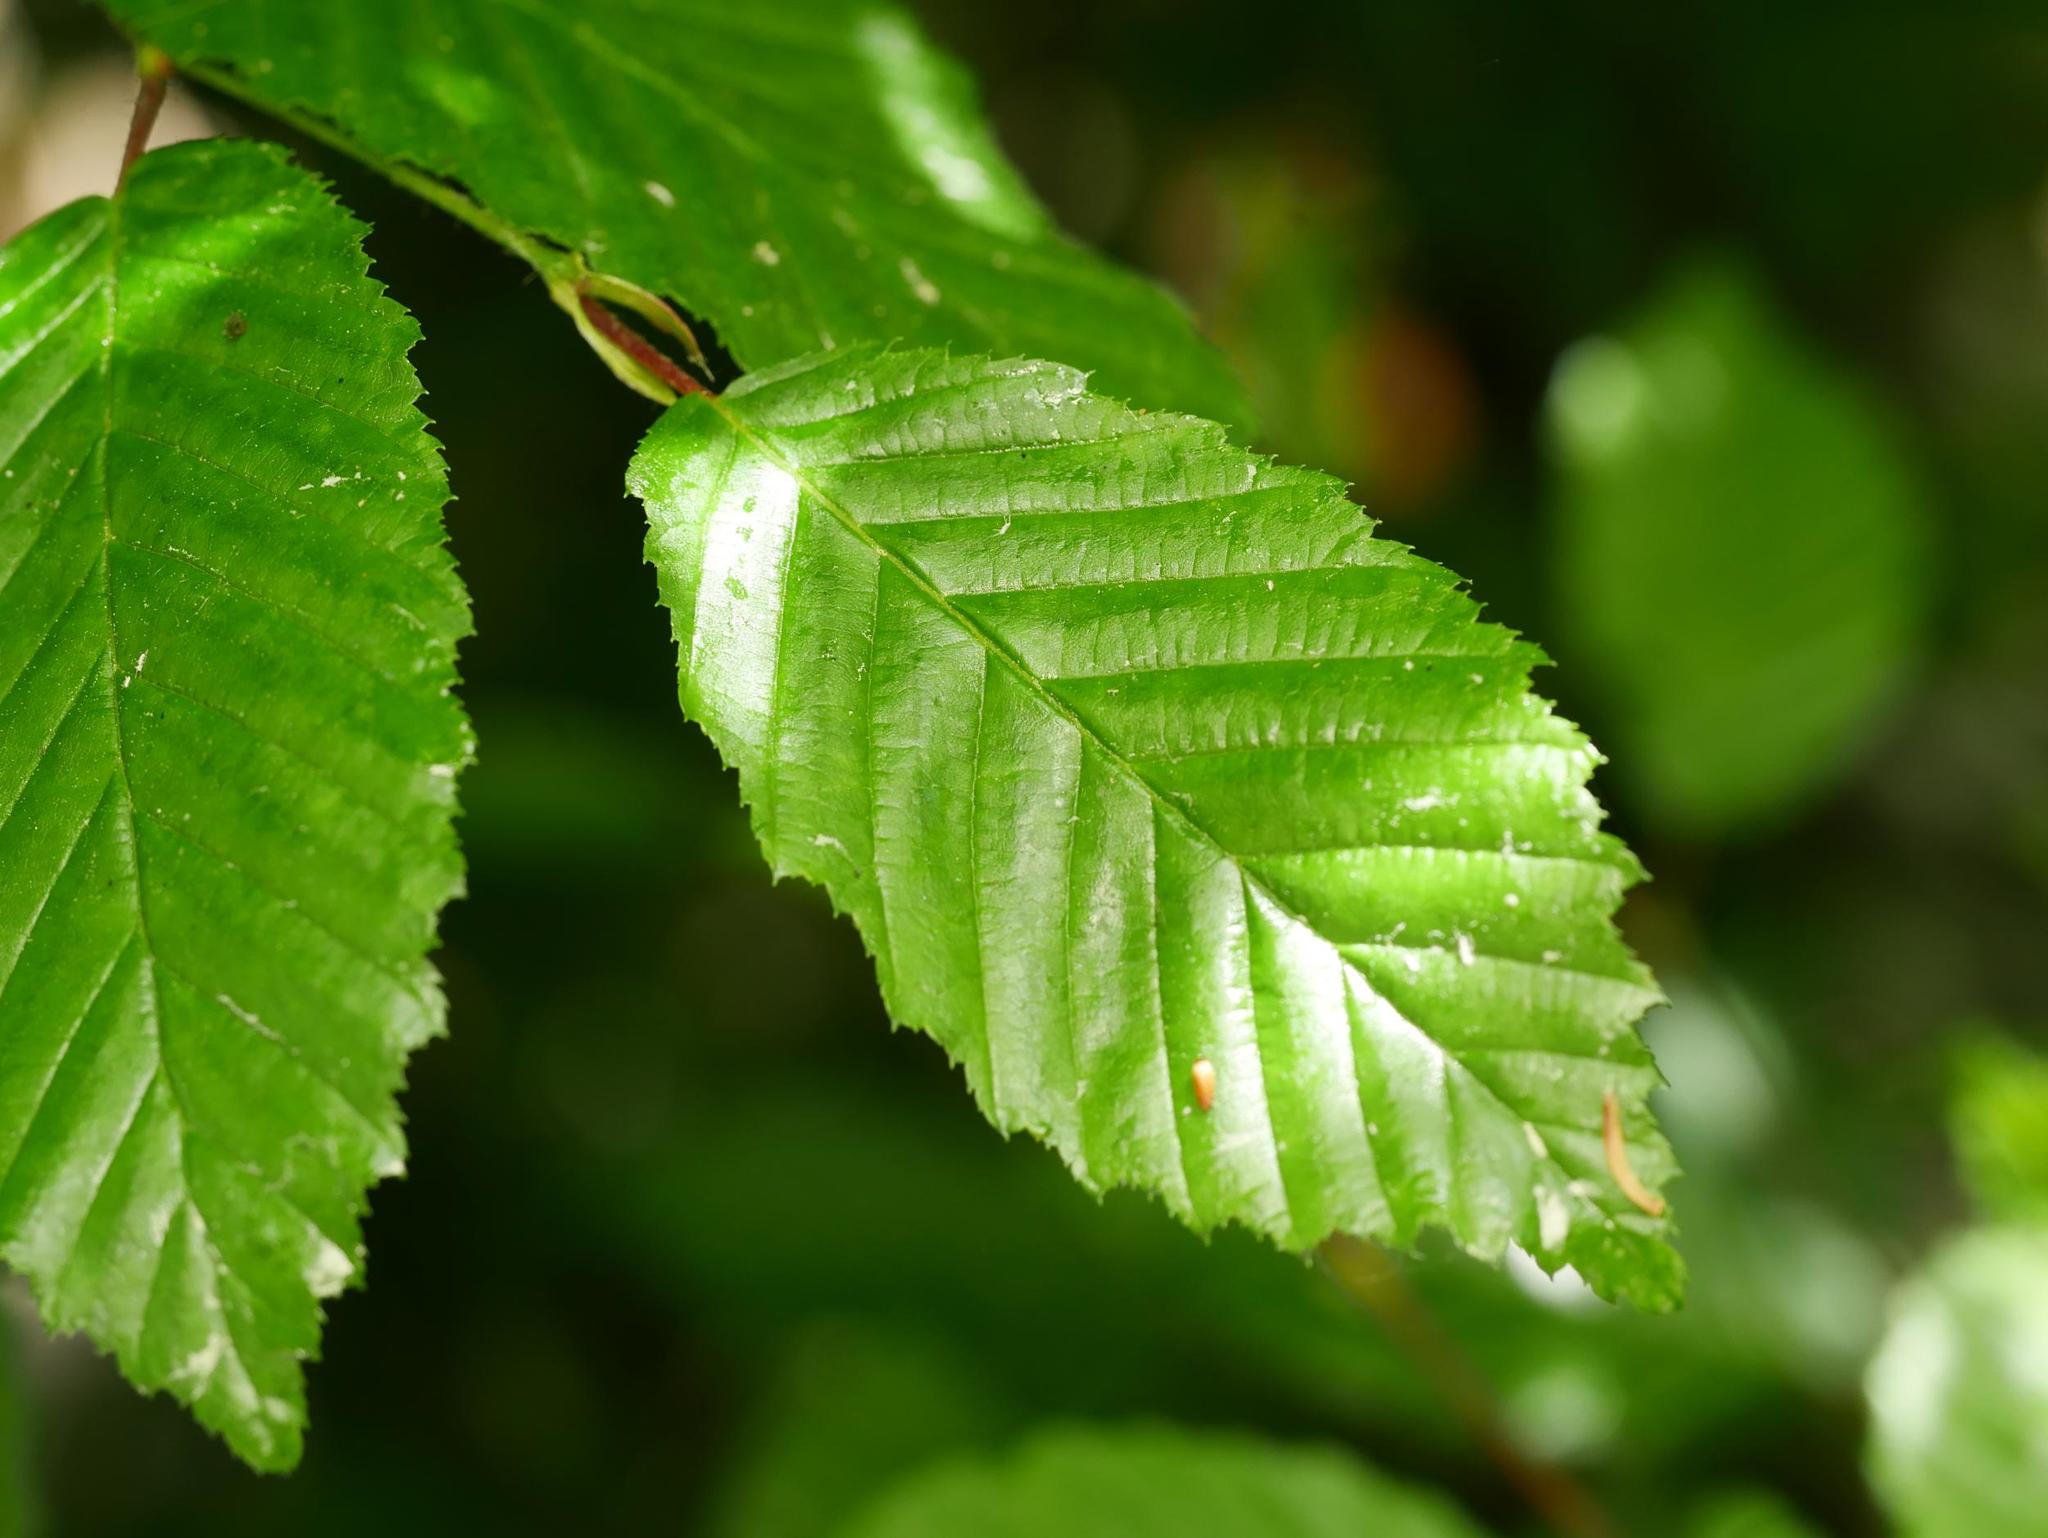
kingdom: Plantae
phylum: Tracheophyta
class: Magnoliopsida
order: Fagales
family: Betulaceae
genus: Carpinus
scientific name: Carpinus betulus
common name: Hornbeam
